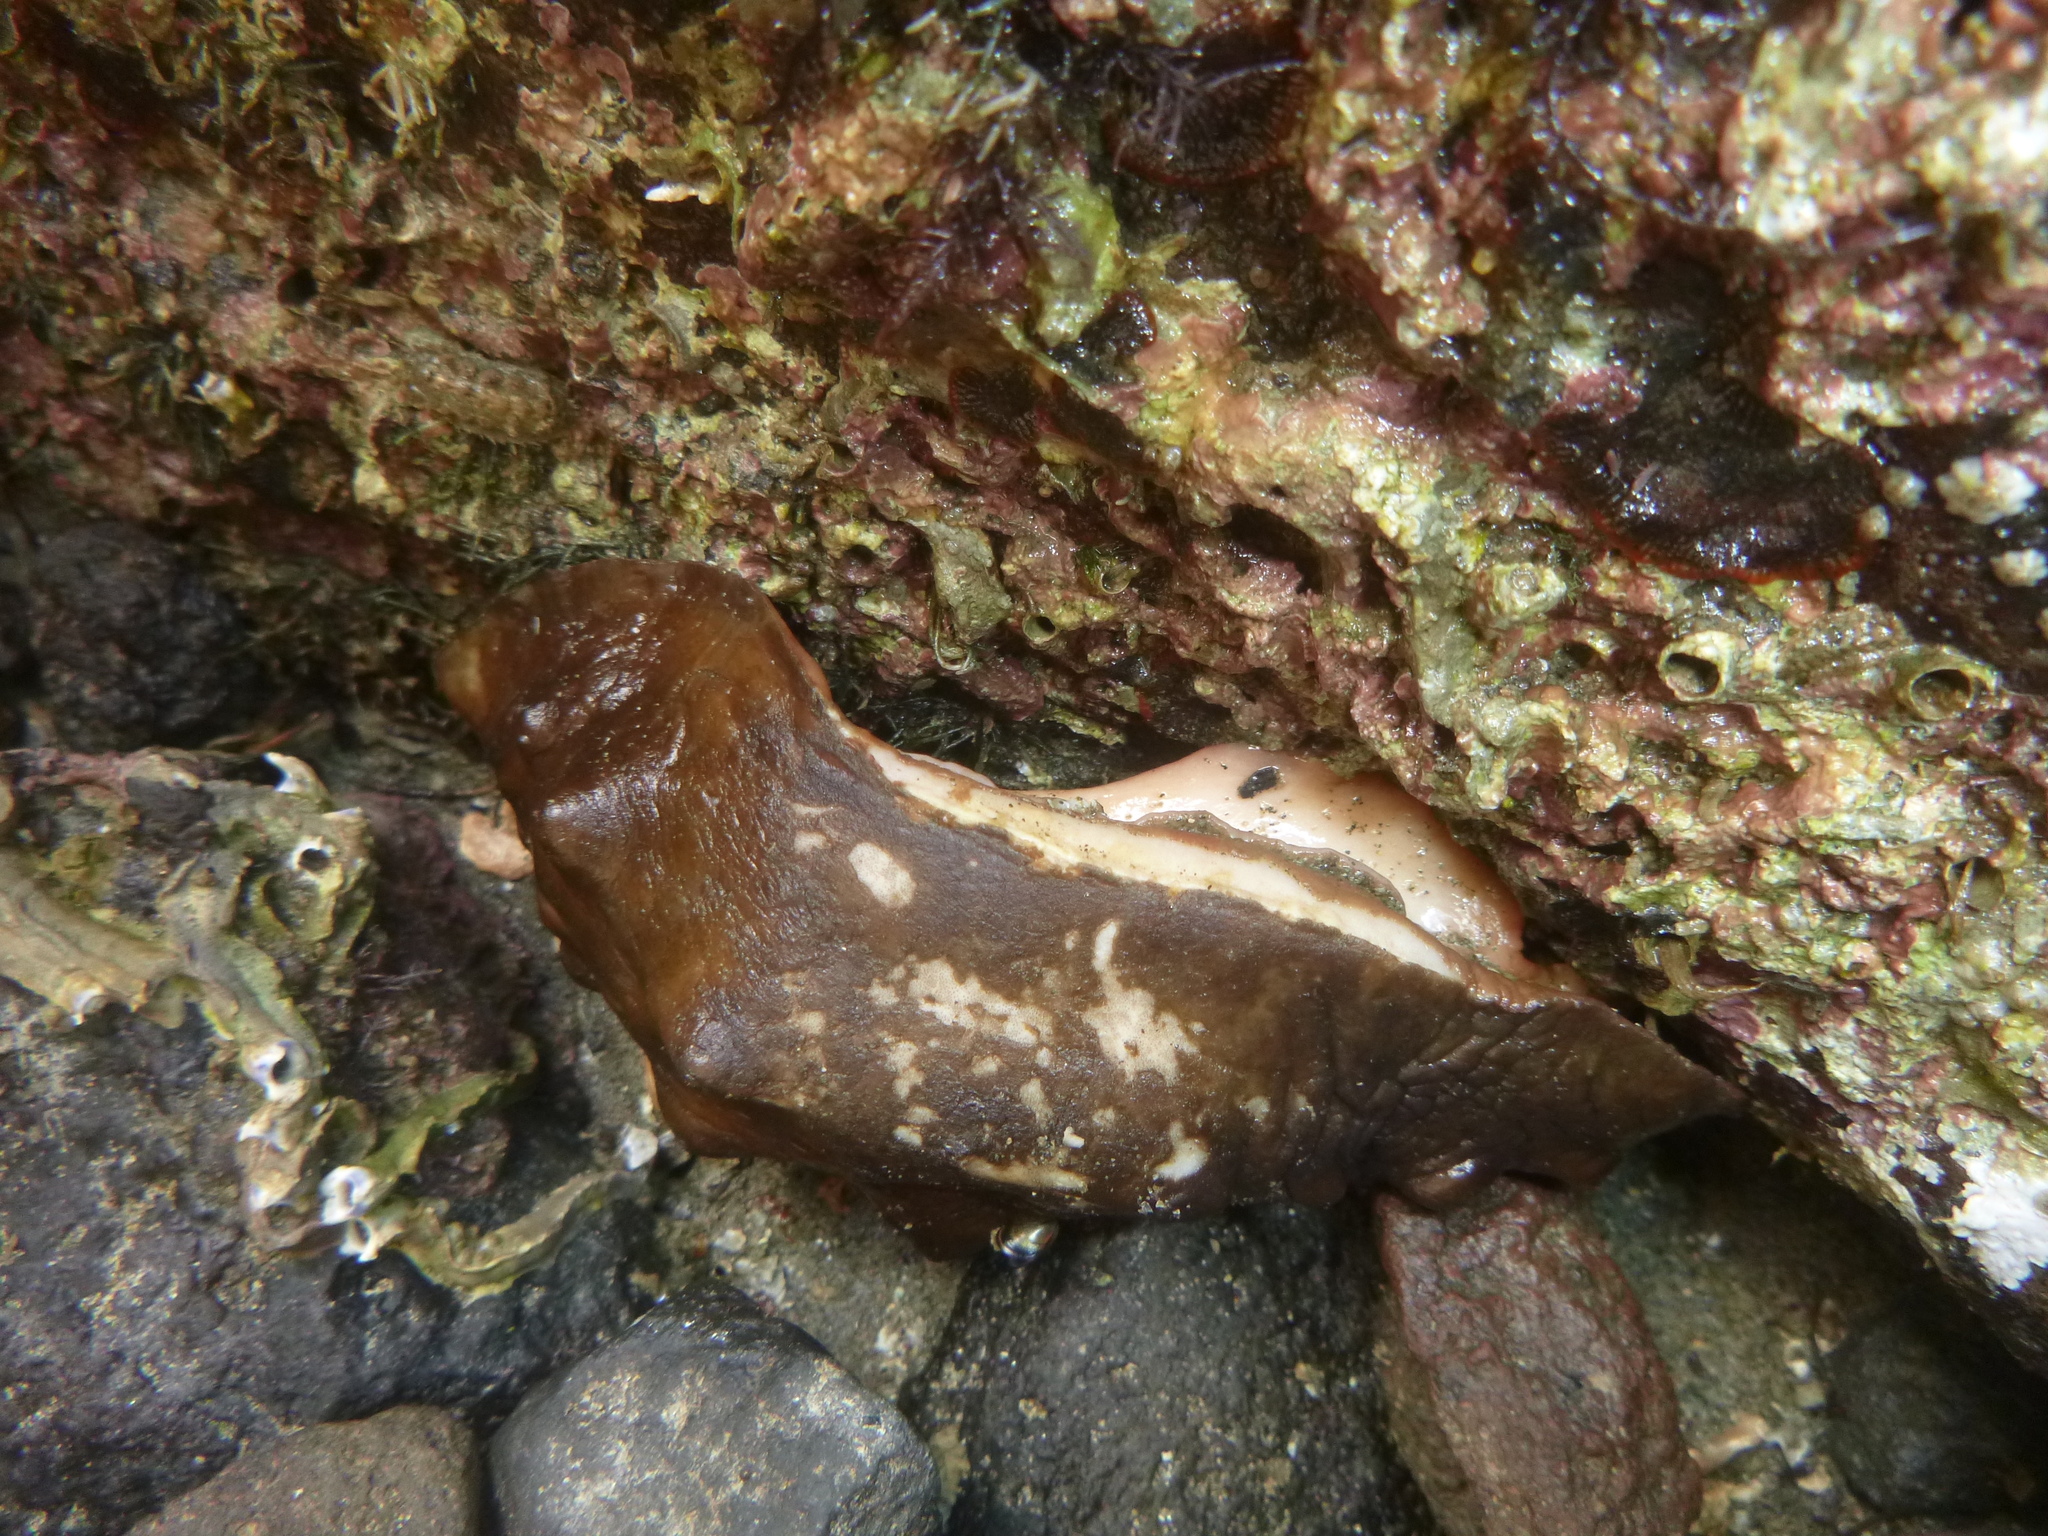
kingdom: Animalia
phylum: Mollusca
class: Polyplacophora
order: Chitonida
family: Acanthochitonidae
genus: Cryptoconchus
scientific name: Cryptoconchus porosus
